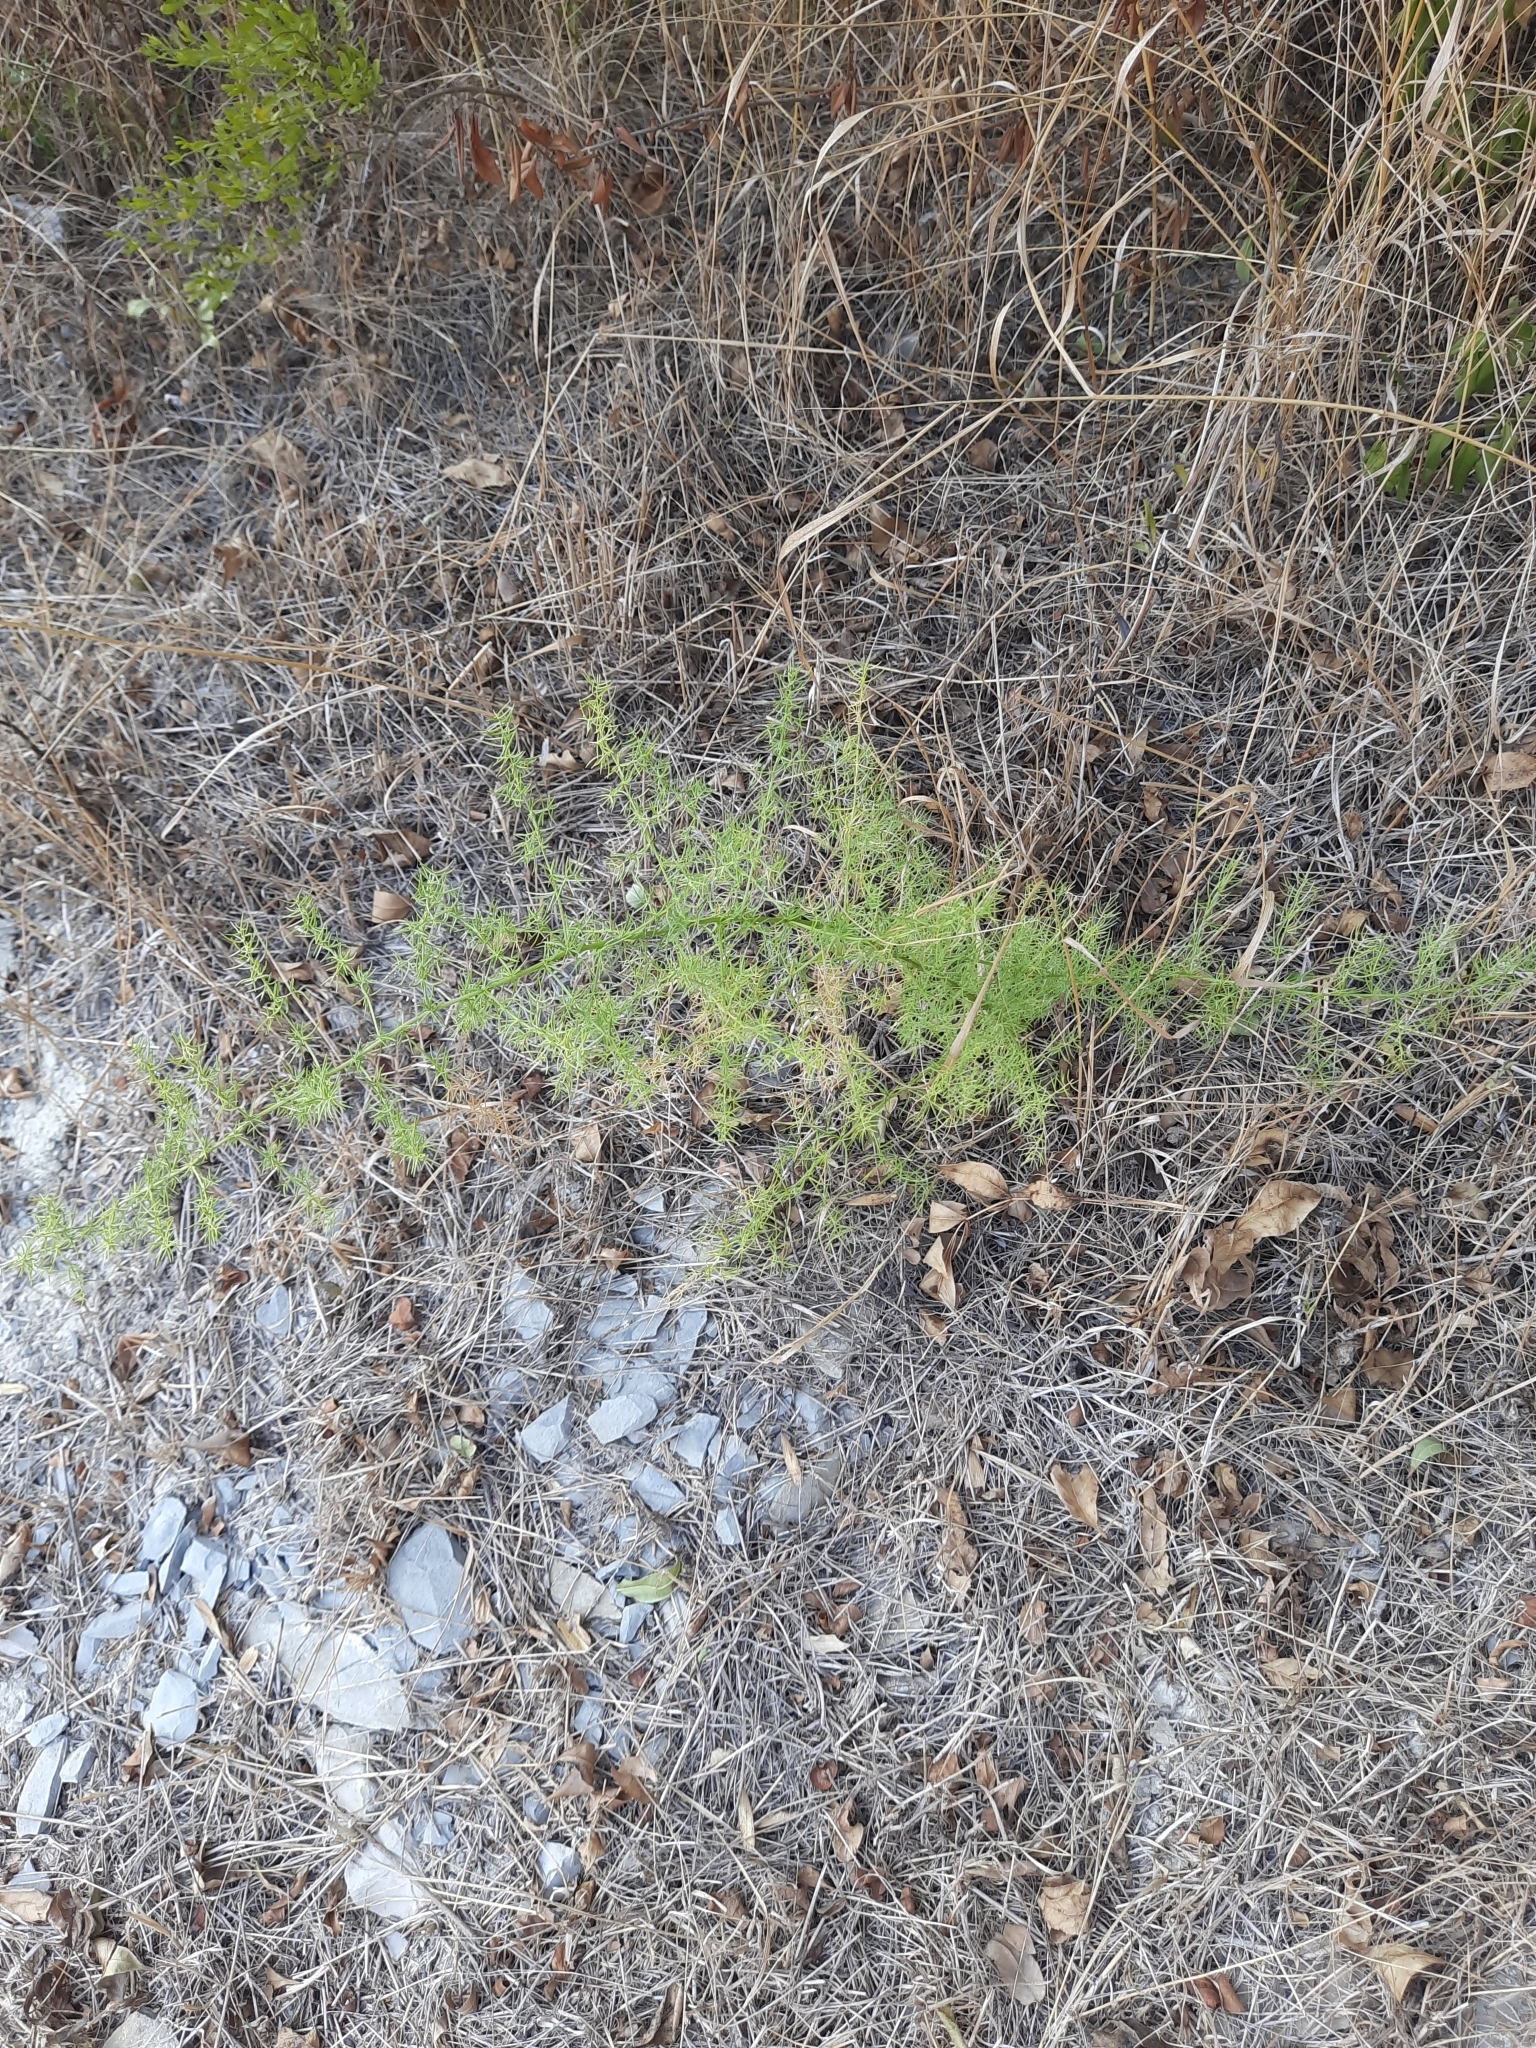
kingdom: Plantae
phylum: Tracheophyta
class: Liliopsida
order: Asparagales
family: Asparagaceae
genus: Asparagus
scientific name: Asparagus verticillatus
